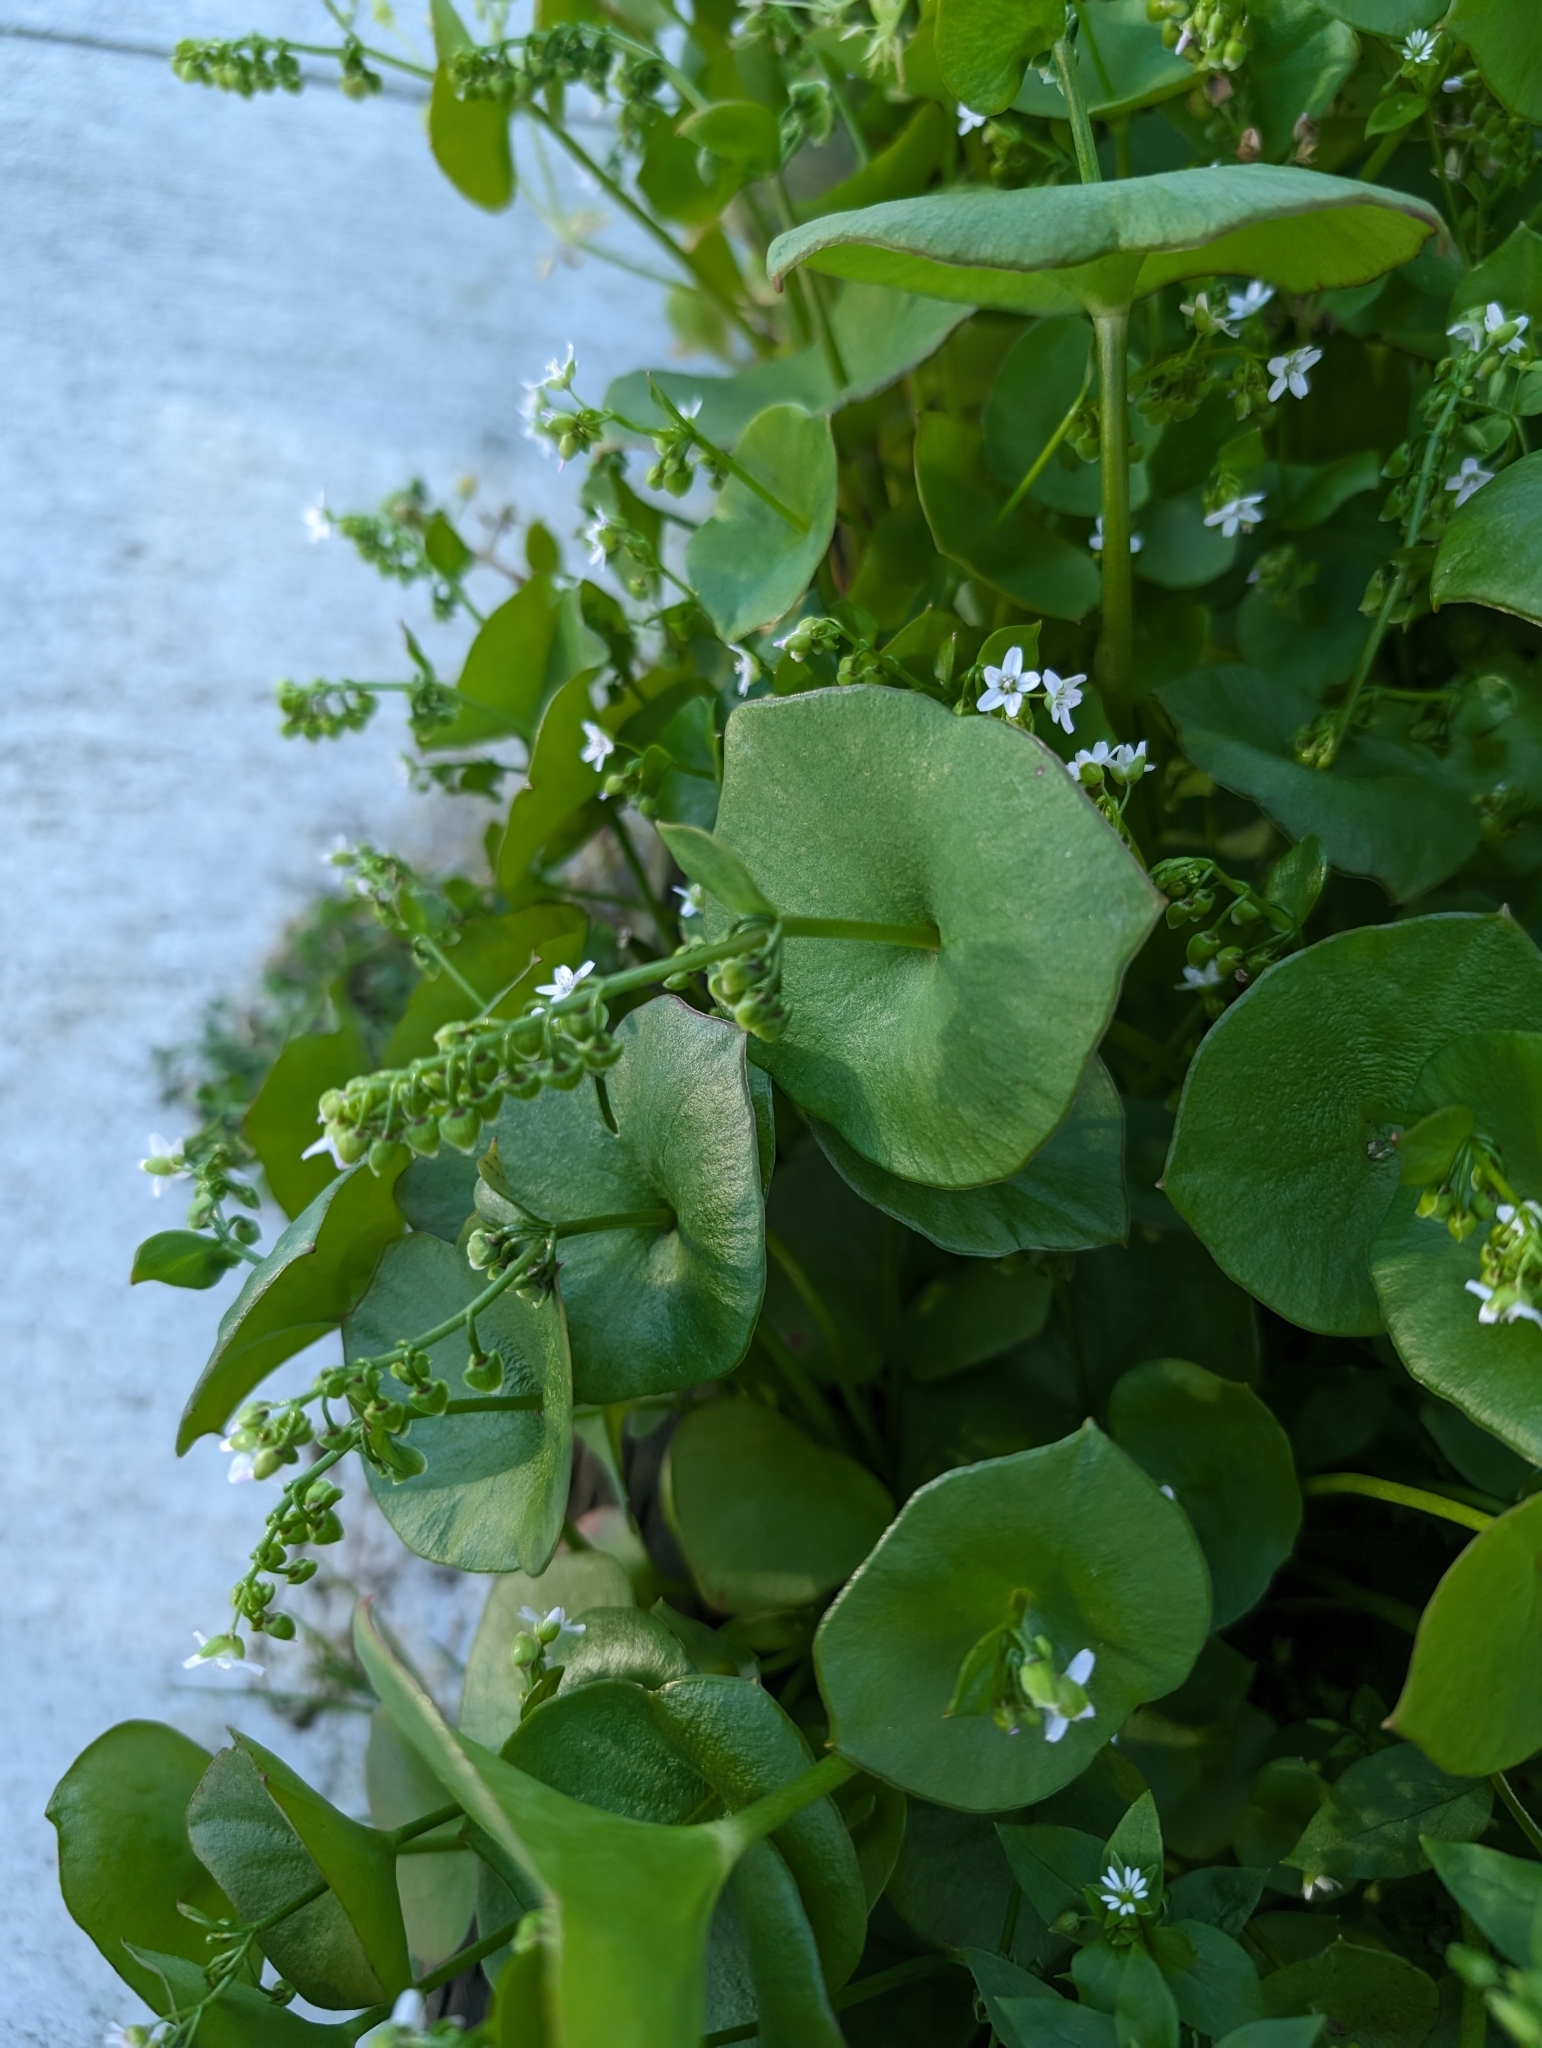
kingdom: Plantae
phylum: Tracheophyta
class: Magnoliopsida
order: Caryophyllales
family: Montiaceae
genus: Claytonia
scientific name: Claytonia perfoliata
